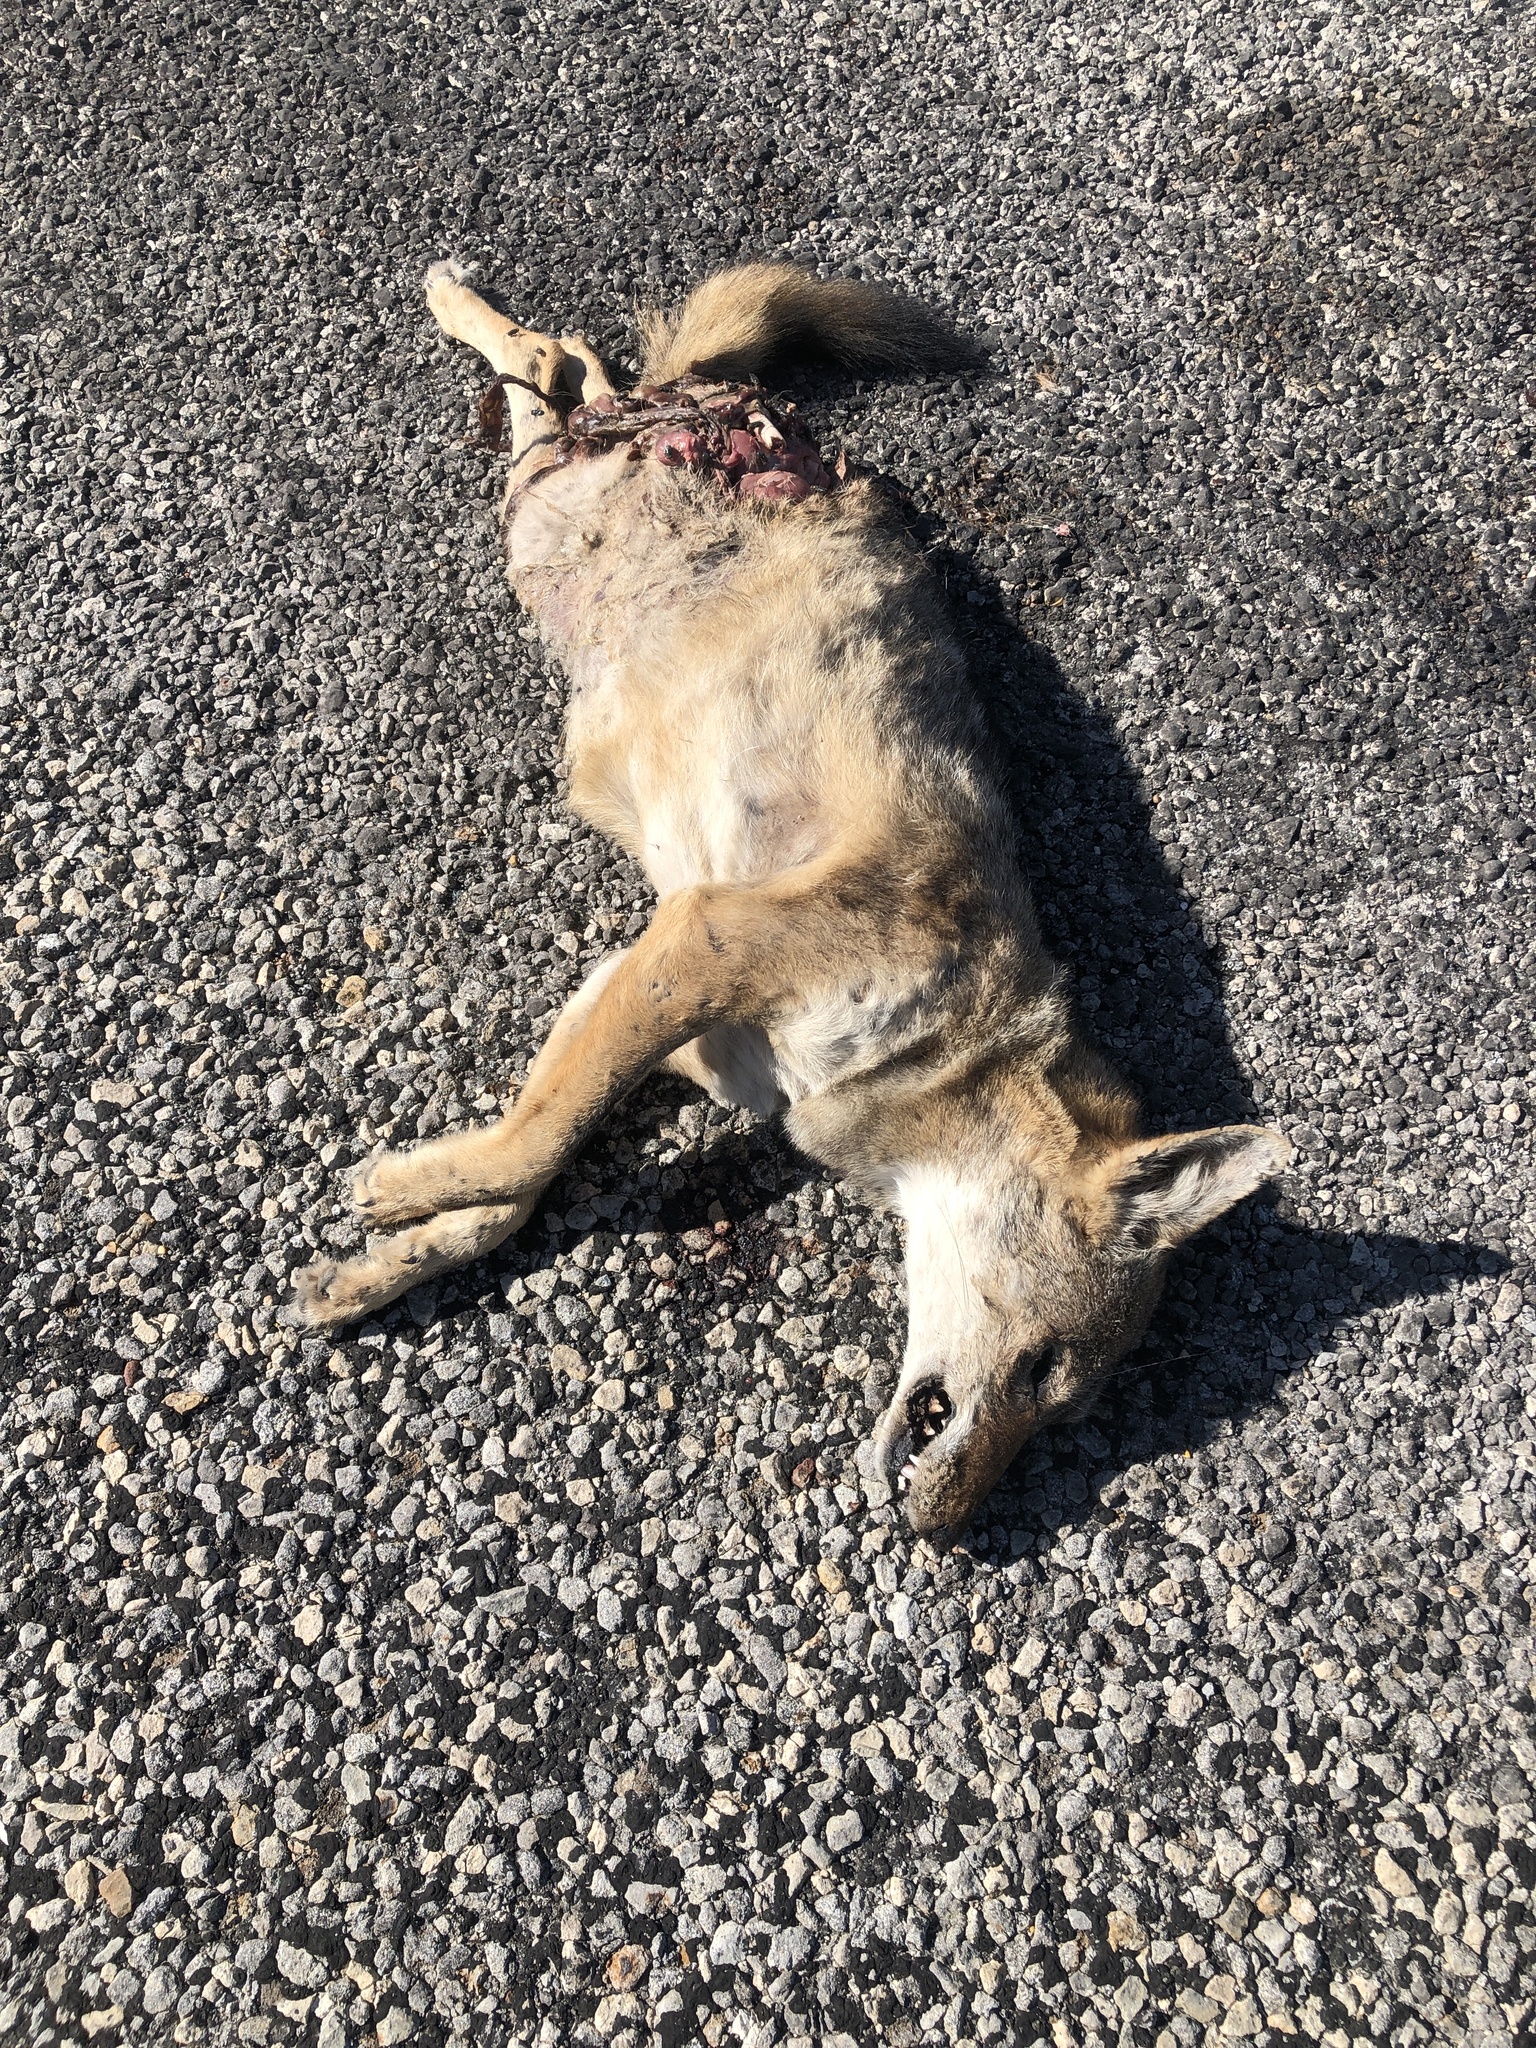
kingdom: Animalia
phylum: Chordata
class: Mammalia
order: Carnivora
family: Canidae
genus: Canis
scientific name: Canis latrans
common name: Coyote
